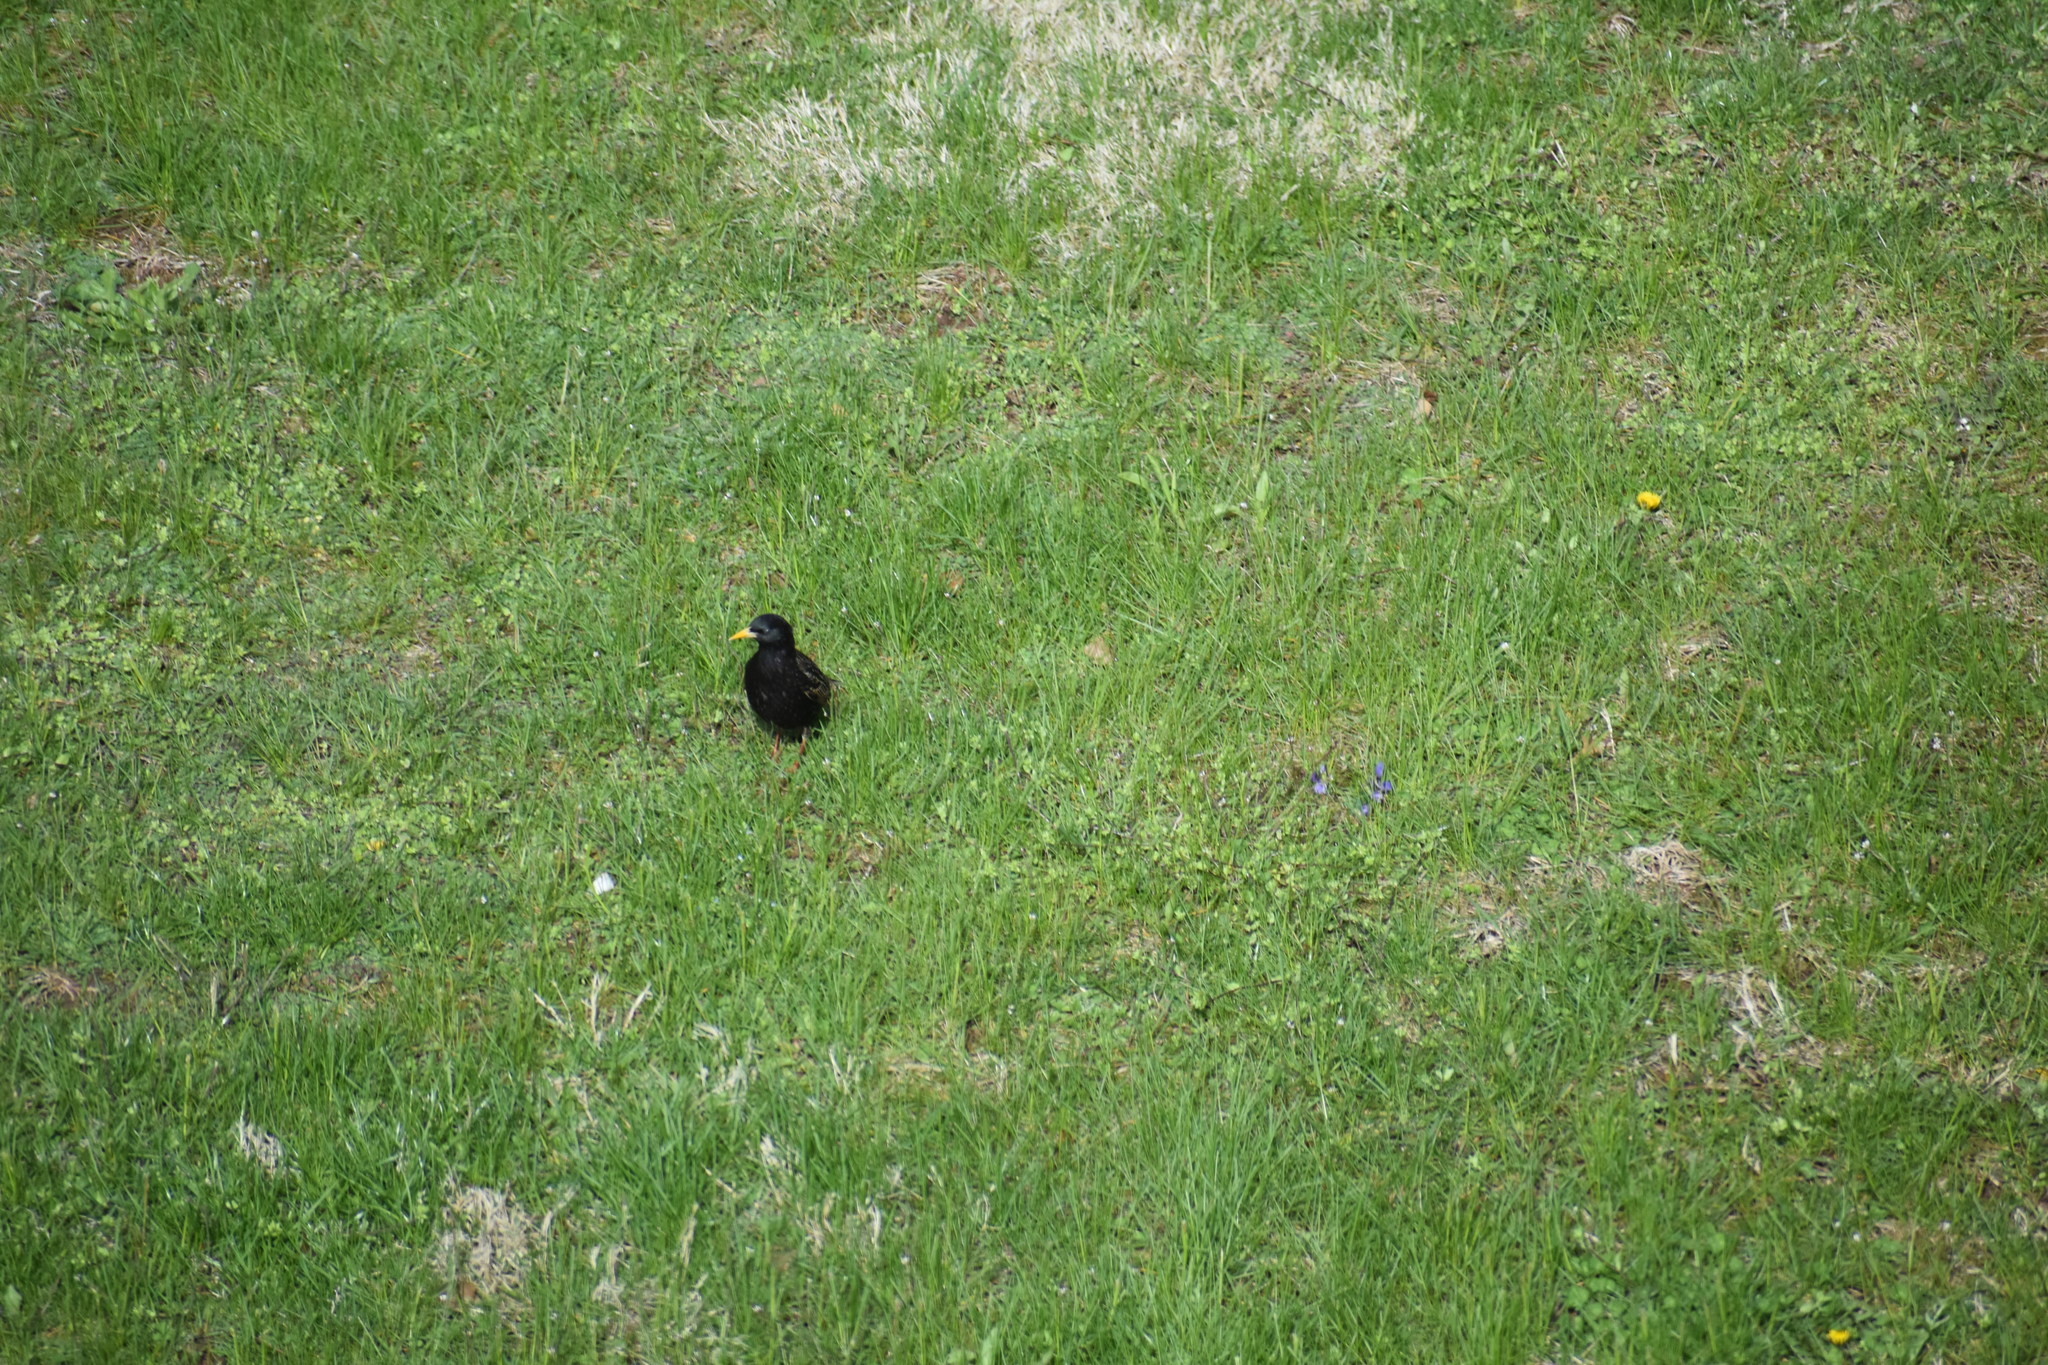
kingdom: Animalia
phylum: Chordata
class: Aves
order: Passeriformes
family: Sturnidae
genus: Sturnus
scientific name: Sturnus vulgaris
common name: Common starling
